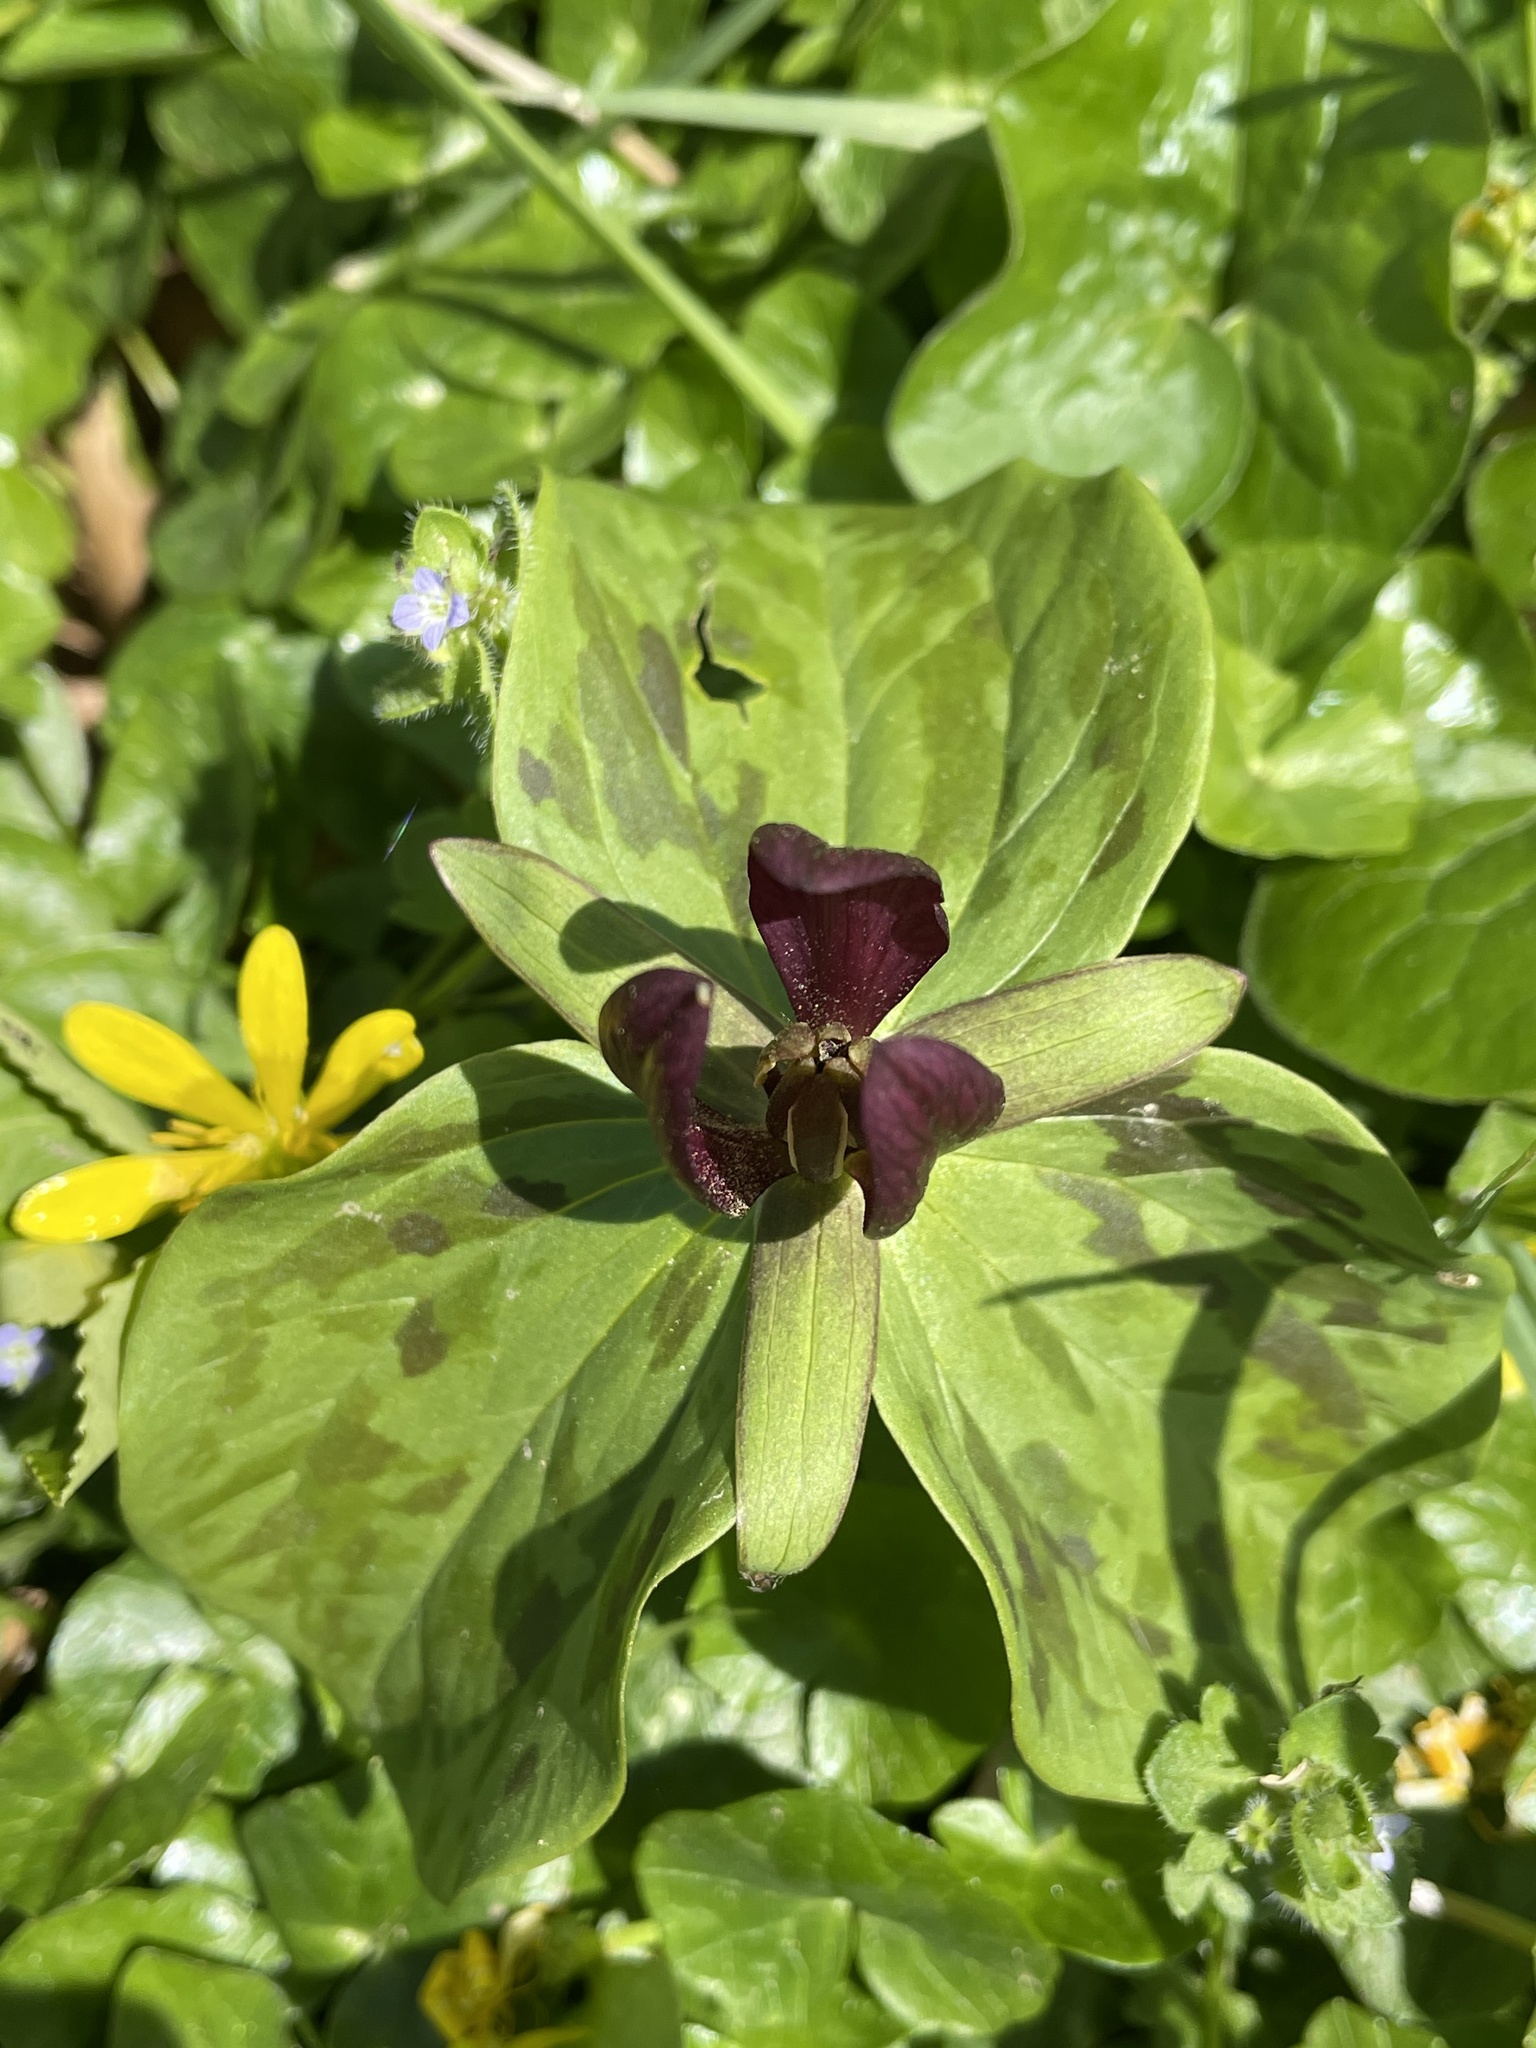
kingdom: Plantae
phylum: Tracheophyta
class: Liliopsida
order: Liliales
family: Melanthiaceae
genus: Trillium
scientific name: Trillium sessile
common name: Sessile trillium
